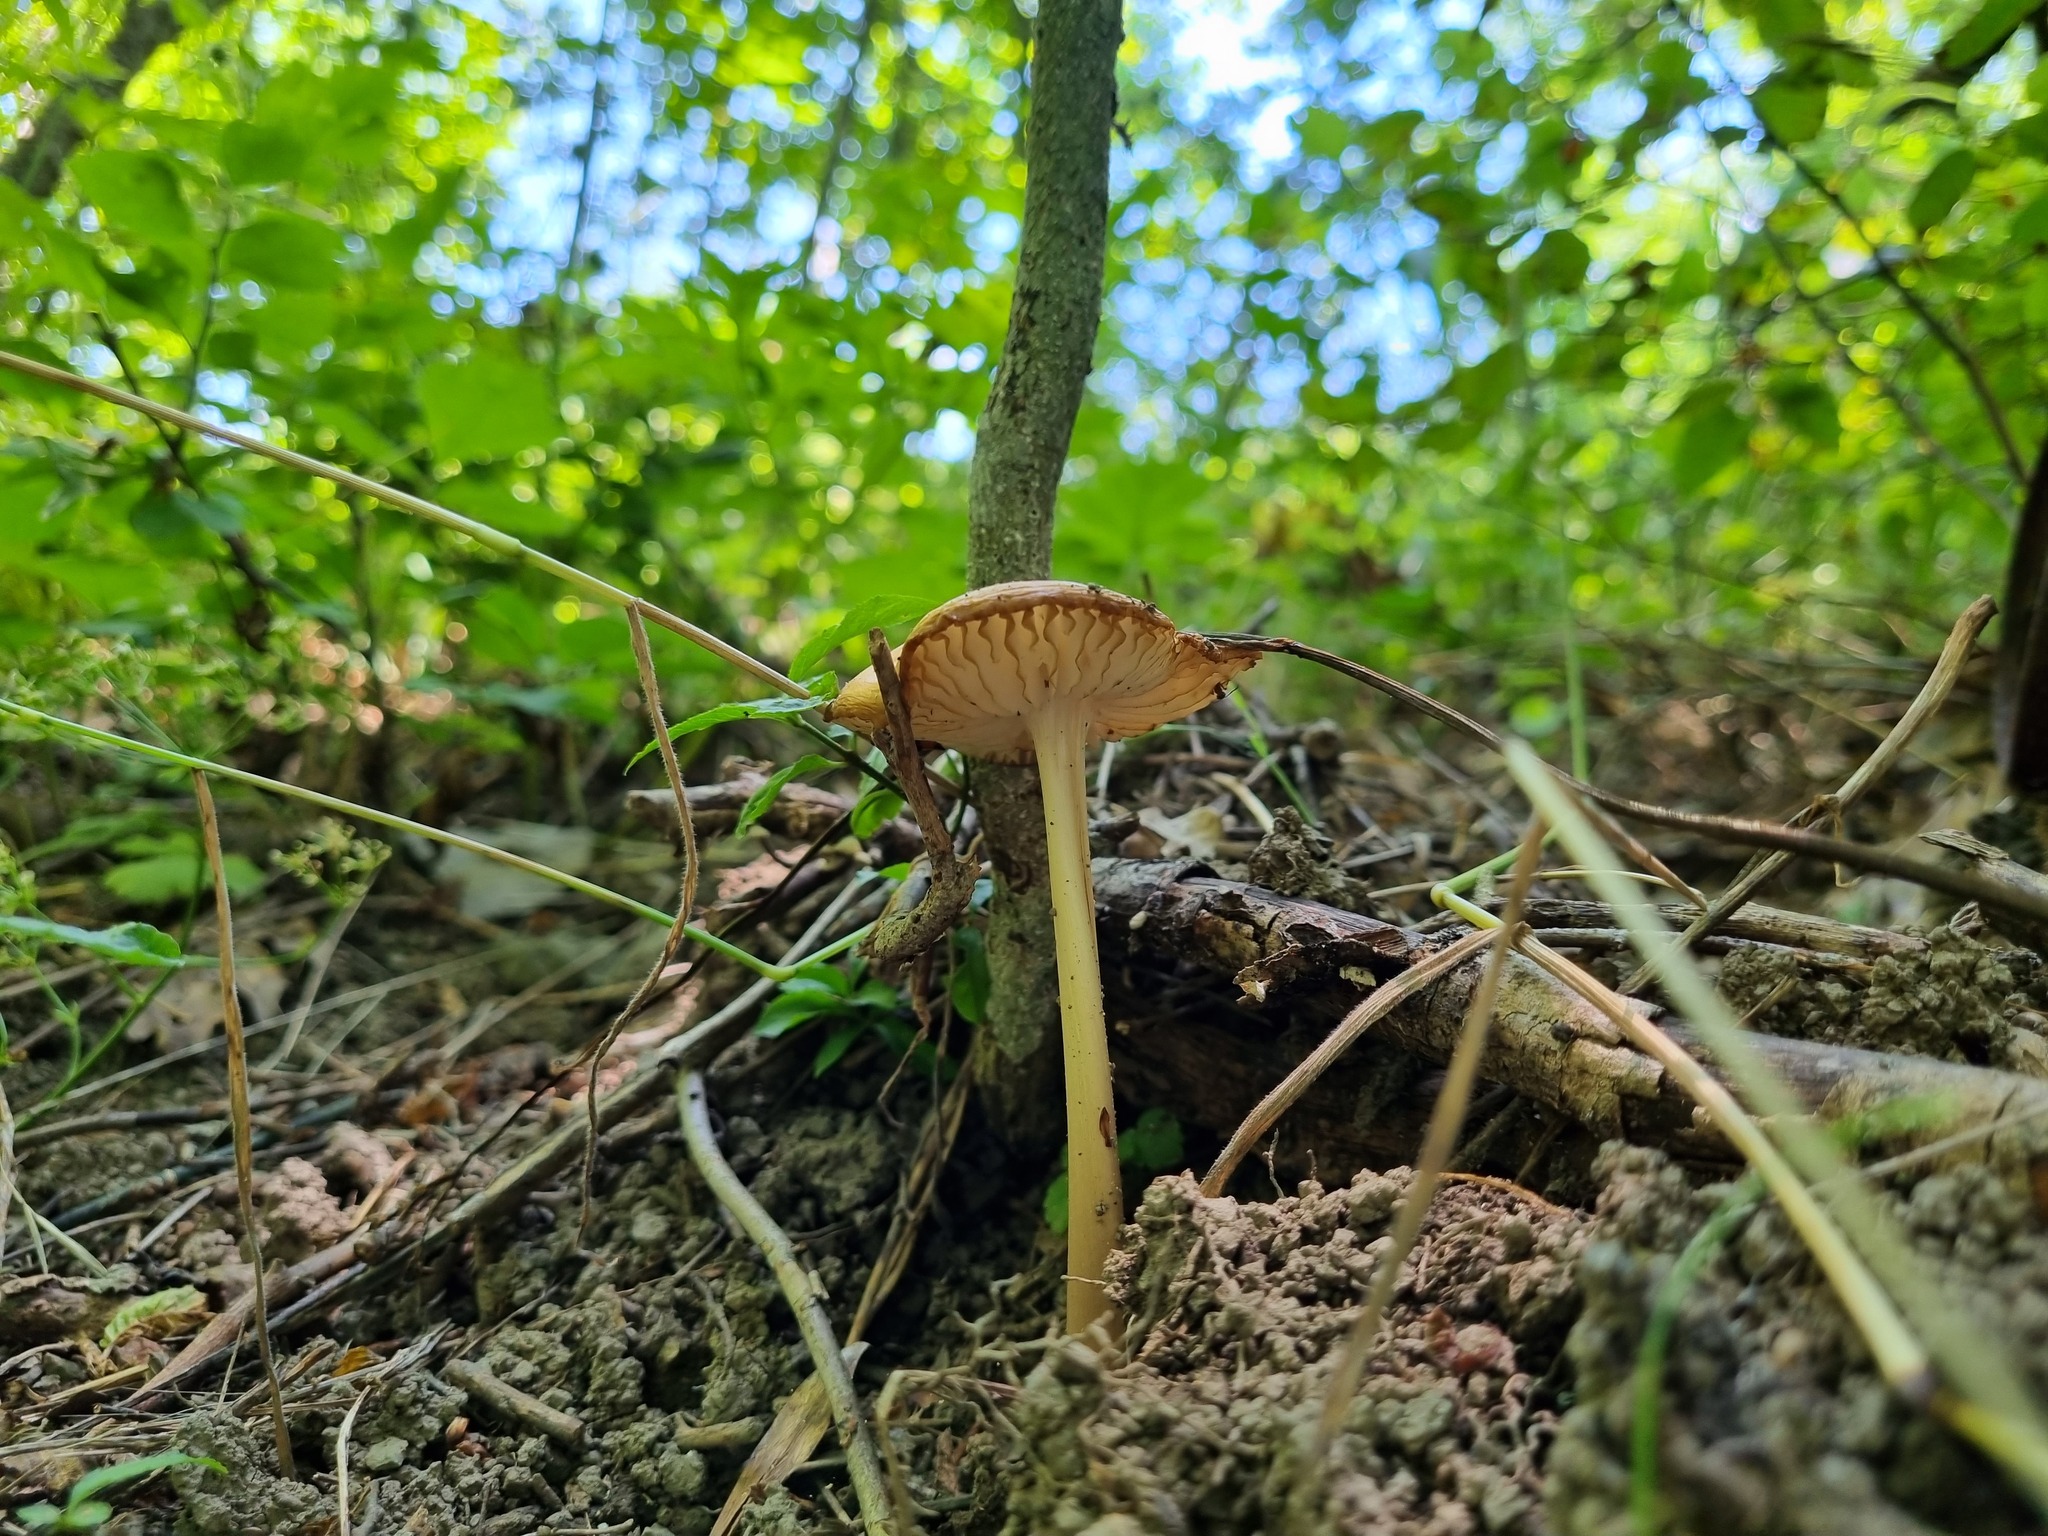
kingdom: Fungi
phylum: Basidiomycota
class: Agaricomycetes
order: Agaricales
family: Physalacriaceae
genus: Hymenopellis
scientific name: Hymenopellis radicata
